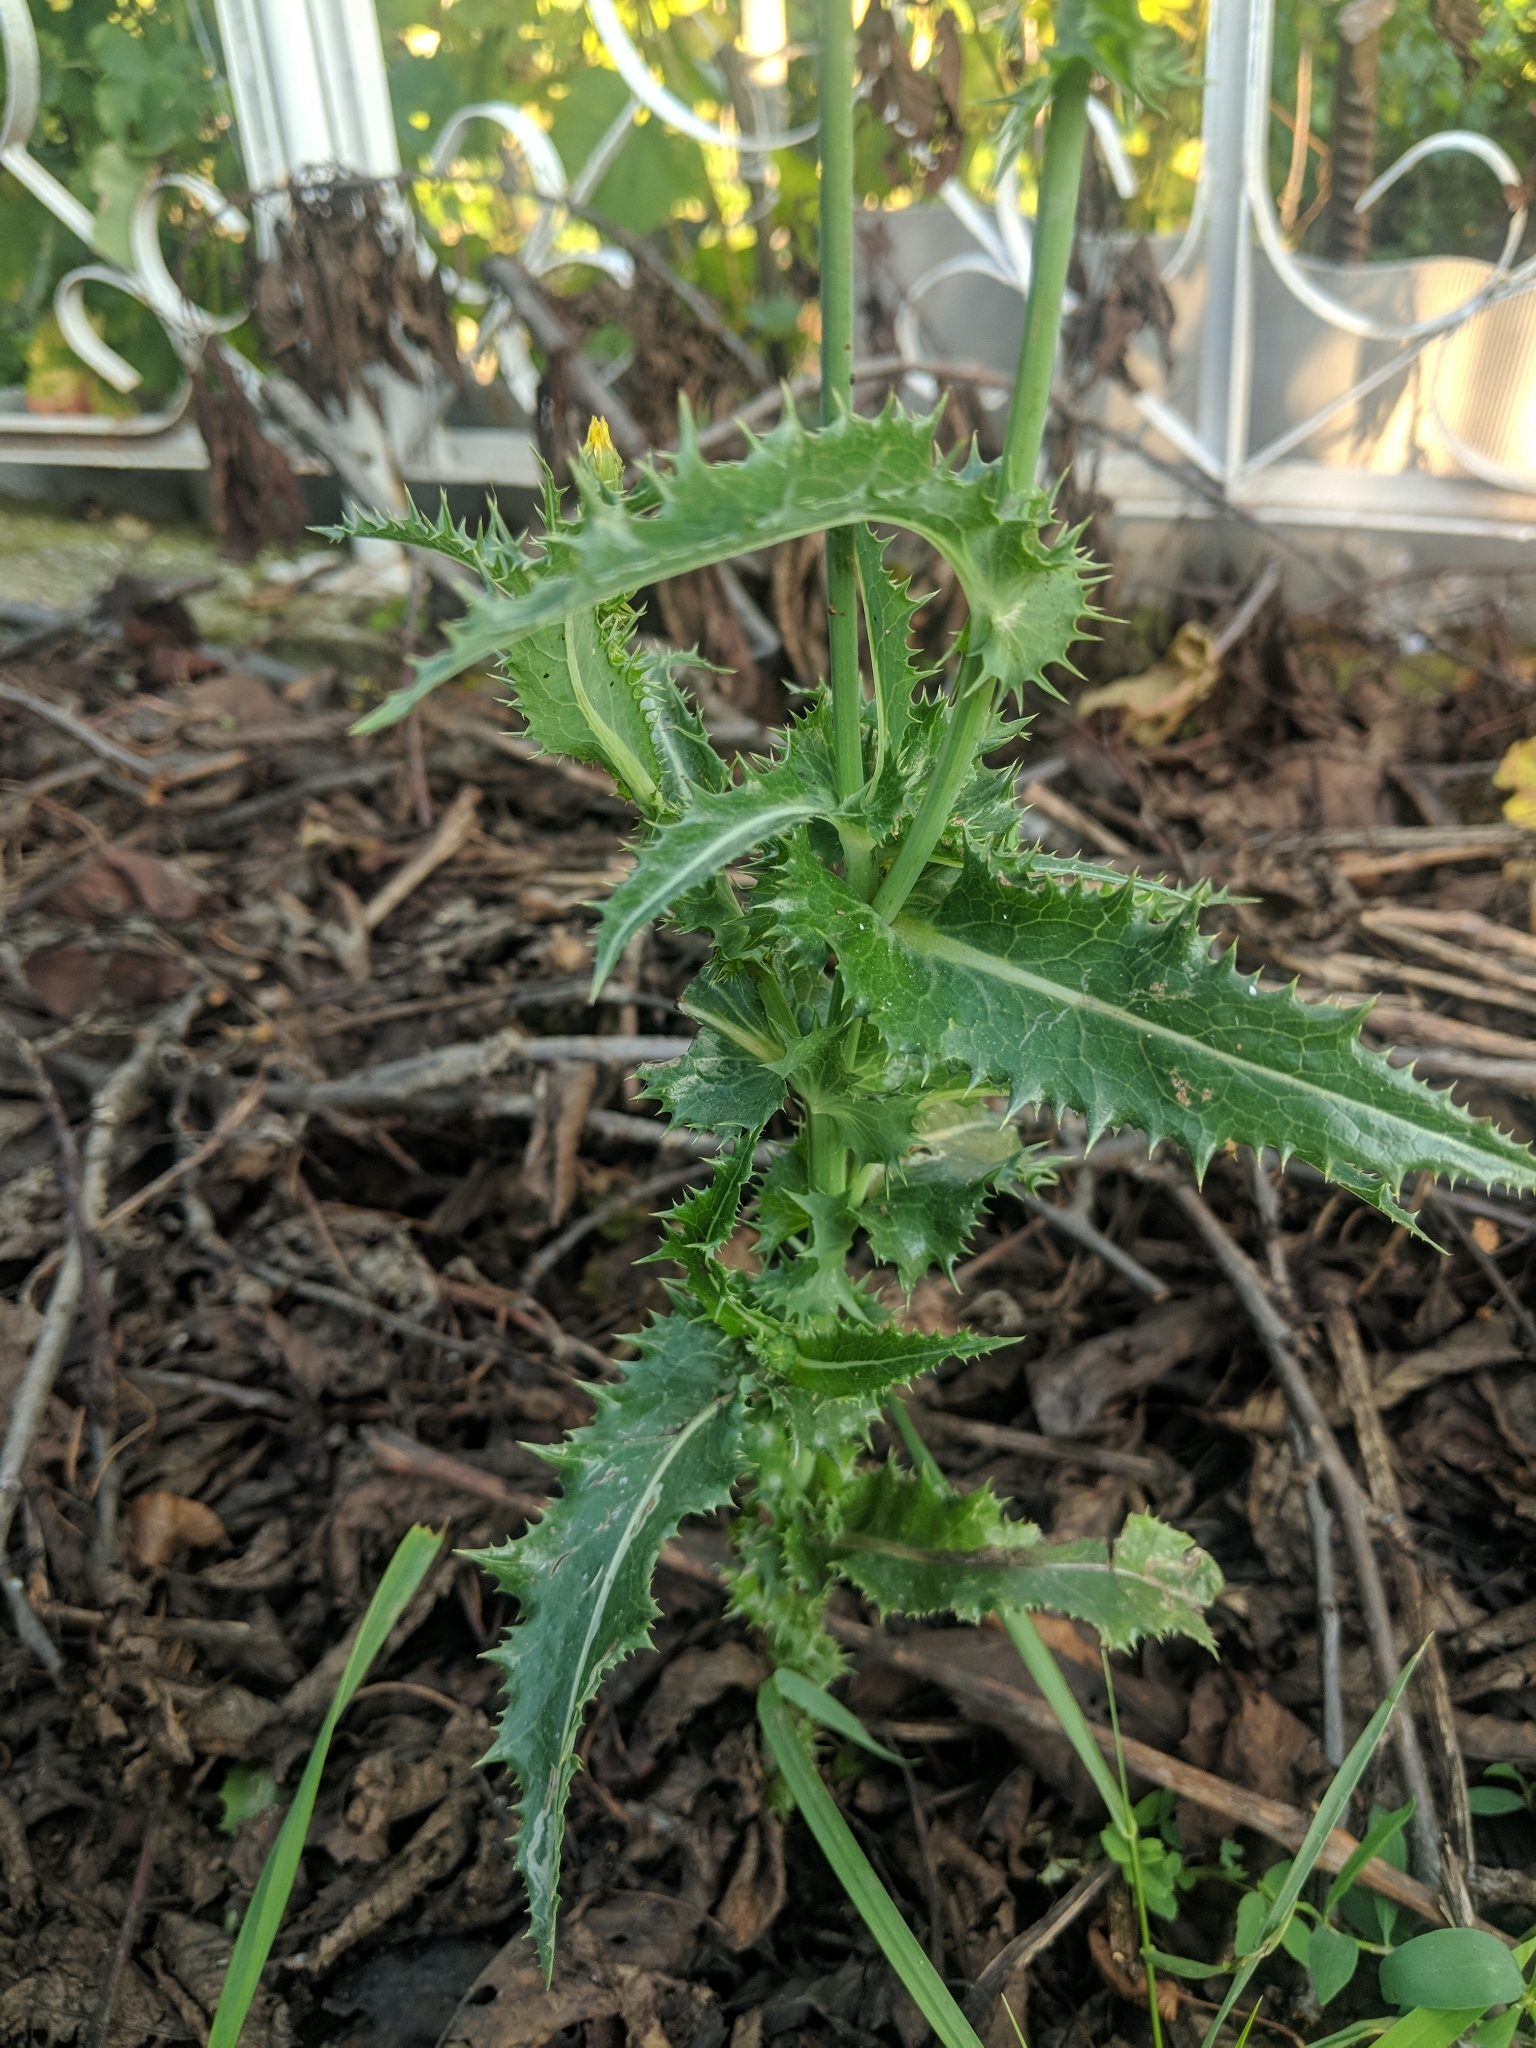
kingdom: Plantae
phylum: Tracheophyta
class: Magnoliopsida
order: Asterales
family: Asteraceae
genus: Sonchus
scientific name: Sonchus asper
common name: Prickly sow-thistle
